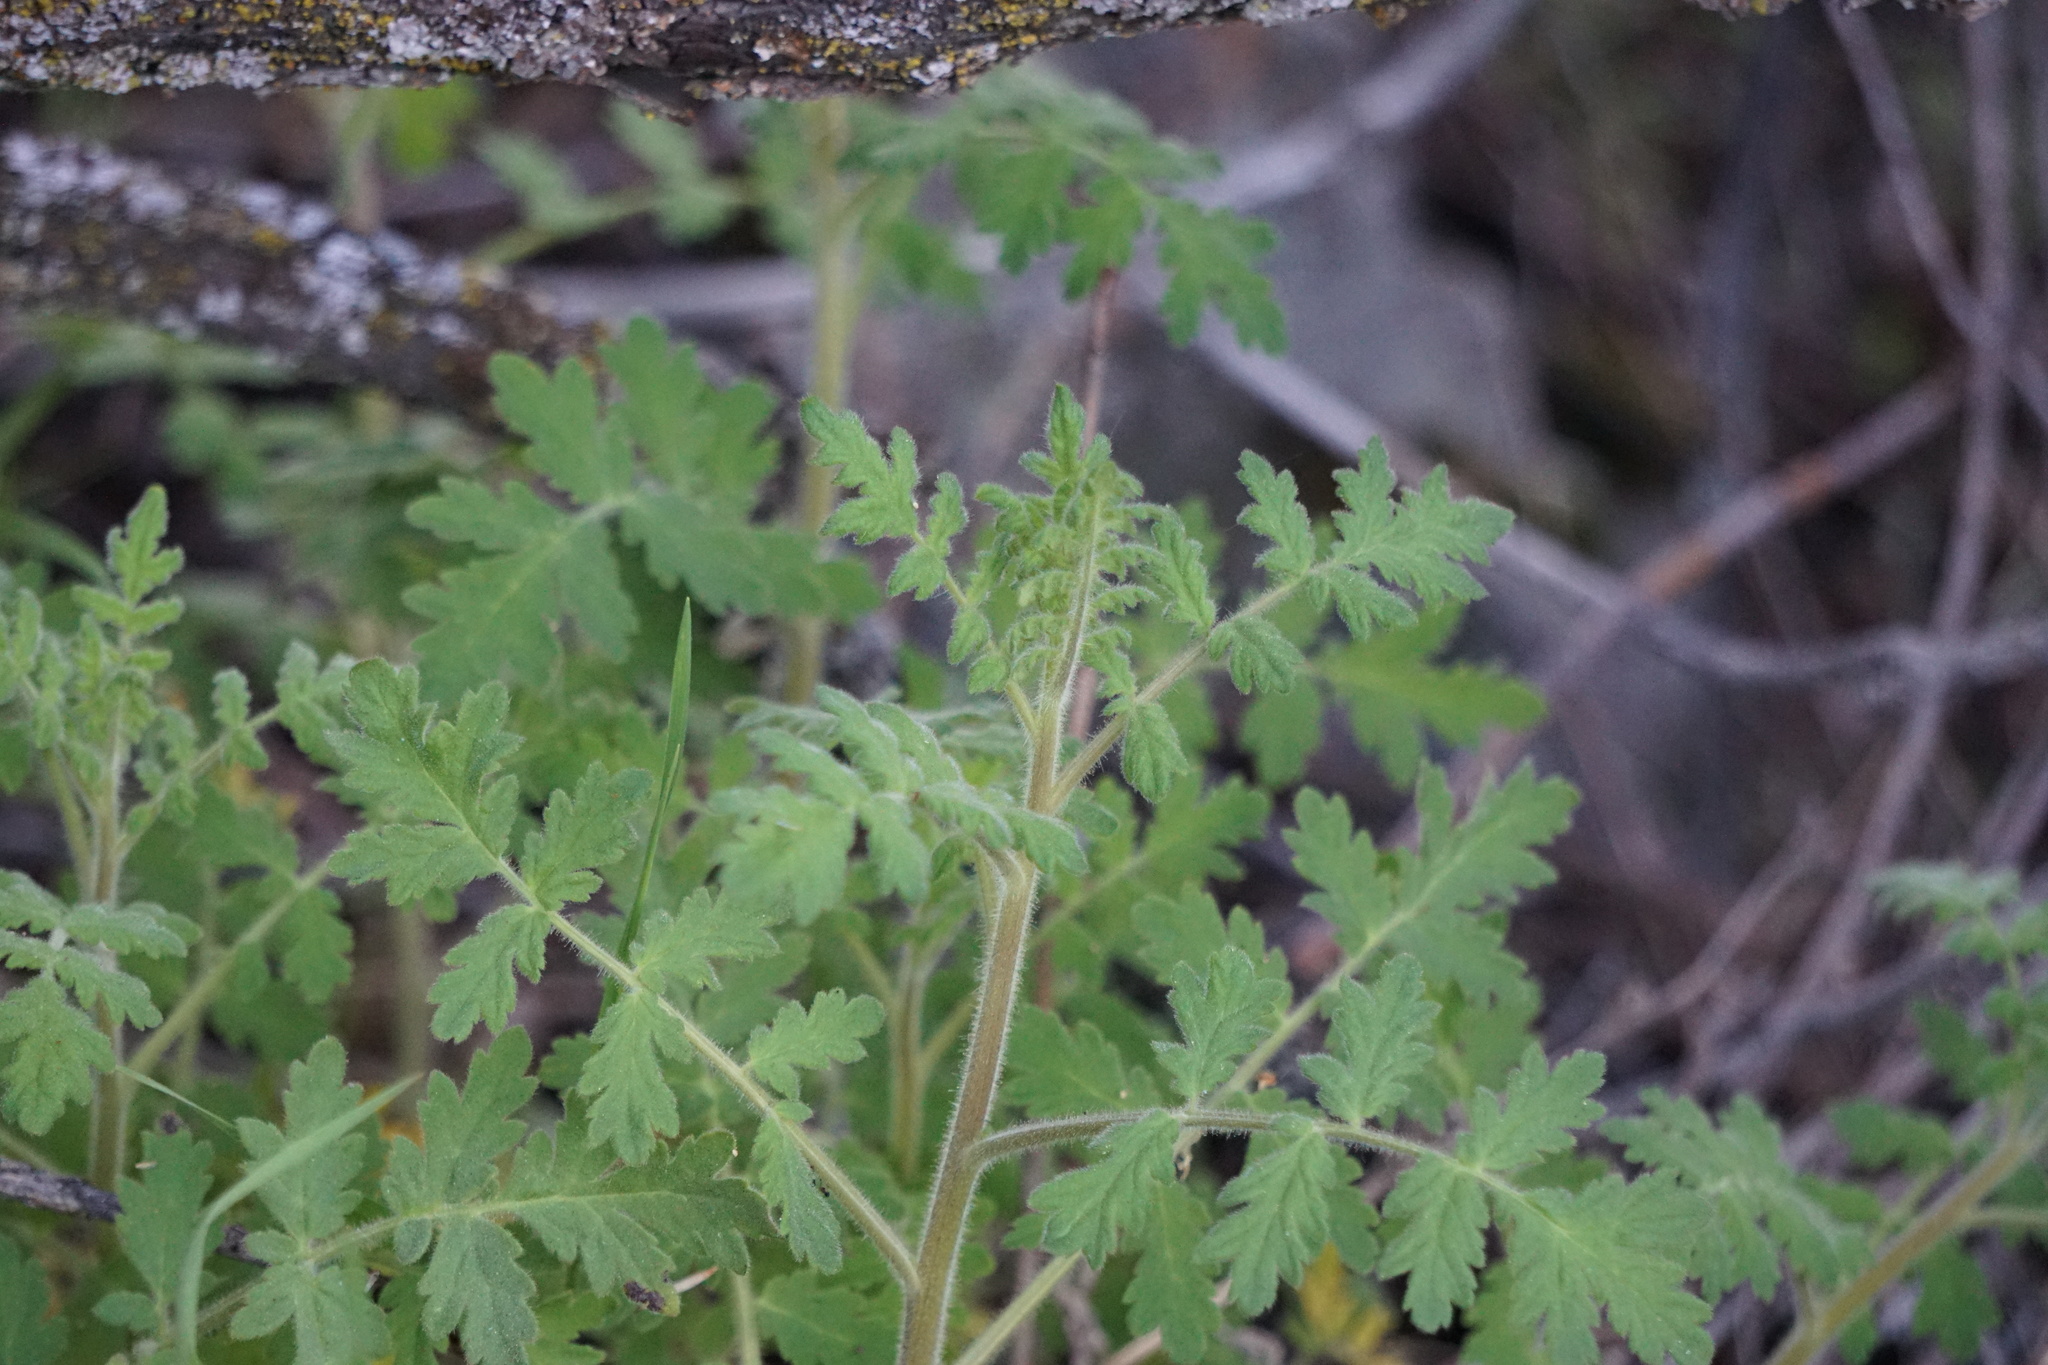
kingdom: Plantae
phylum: Tracheophyta
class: Magnoliopsida
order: Boraginales
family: Hydrophyllaceae
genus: Phacelia
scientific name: Phacelia ramosissima
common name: Branching phacelia
